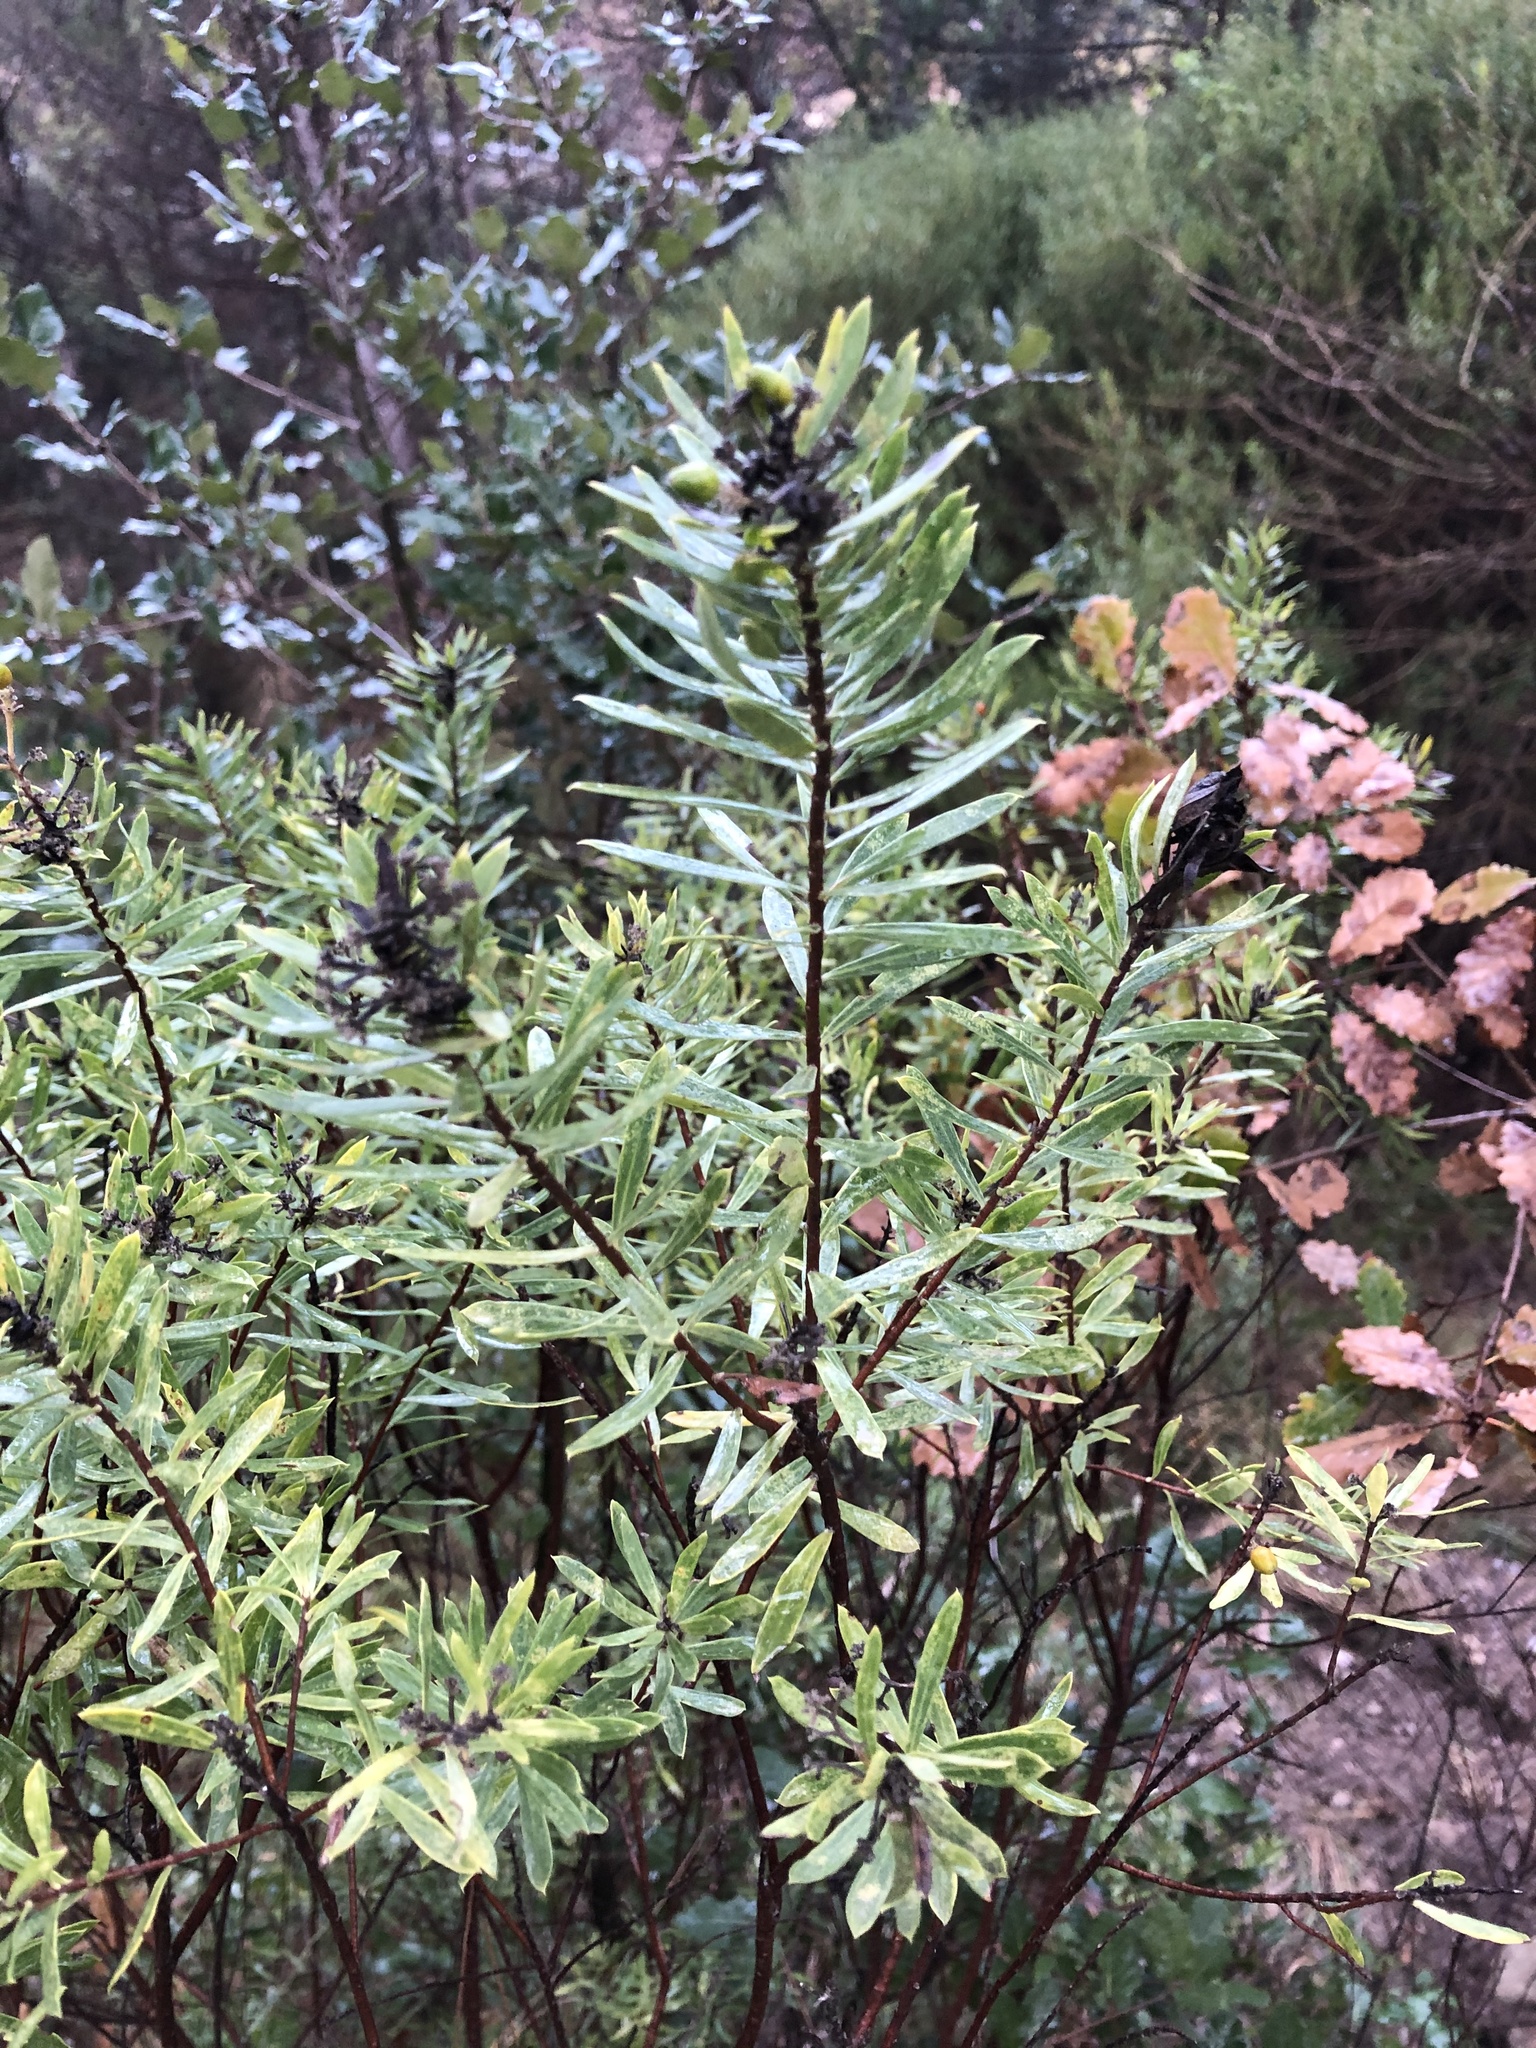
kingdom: Plantae
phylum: Tracheophyta
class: Magnoliopsida
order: Malvales
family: Thymelaeaceae
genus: Daphne
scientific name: Daphne gnidium
